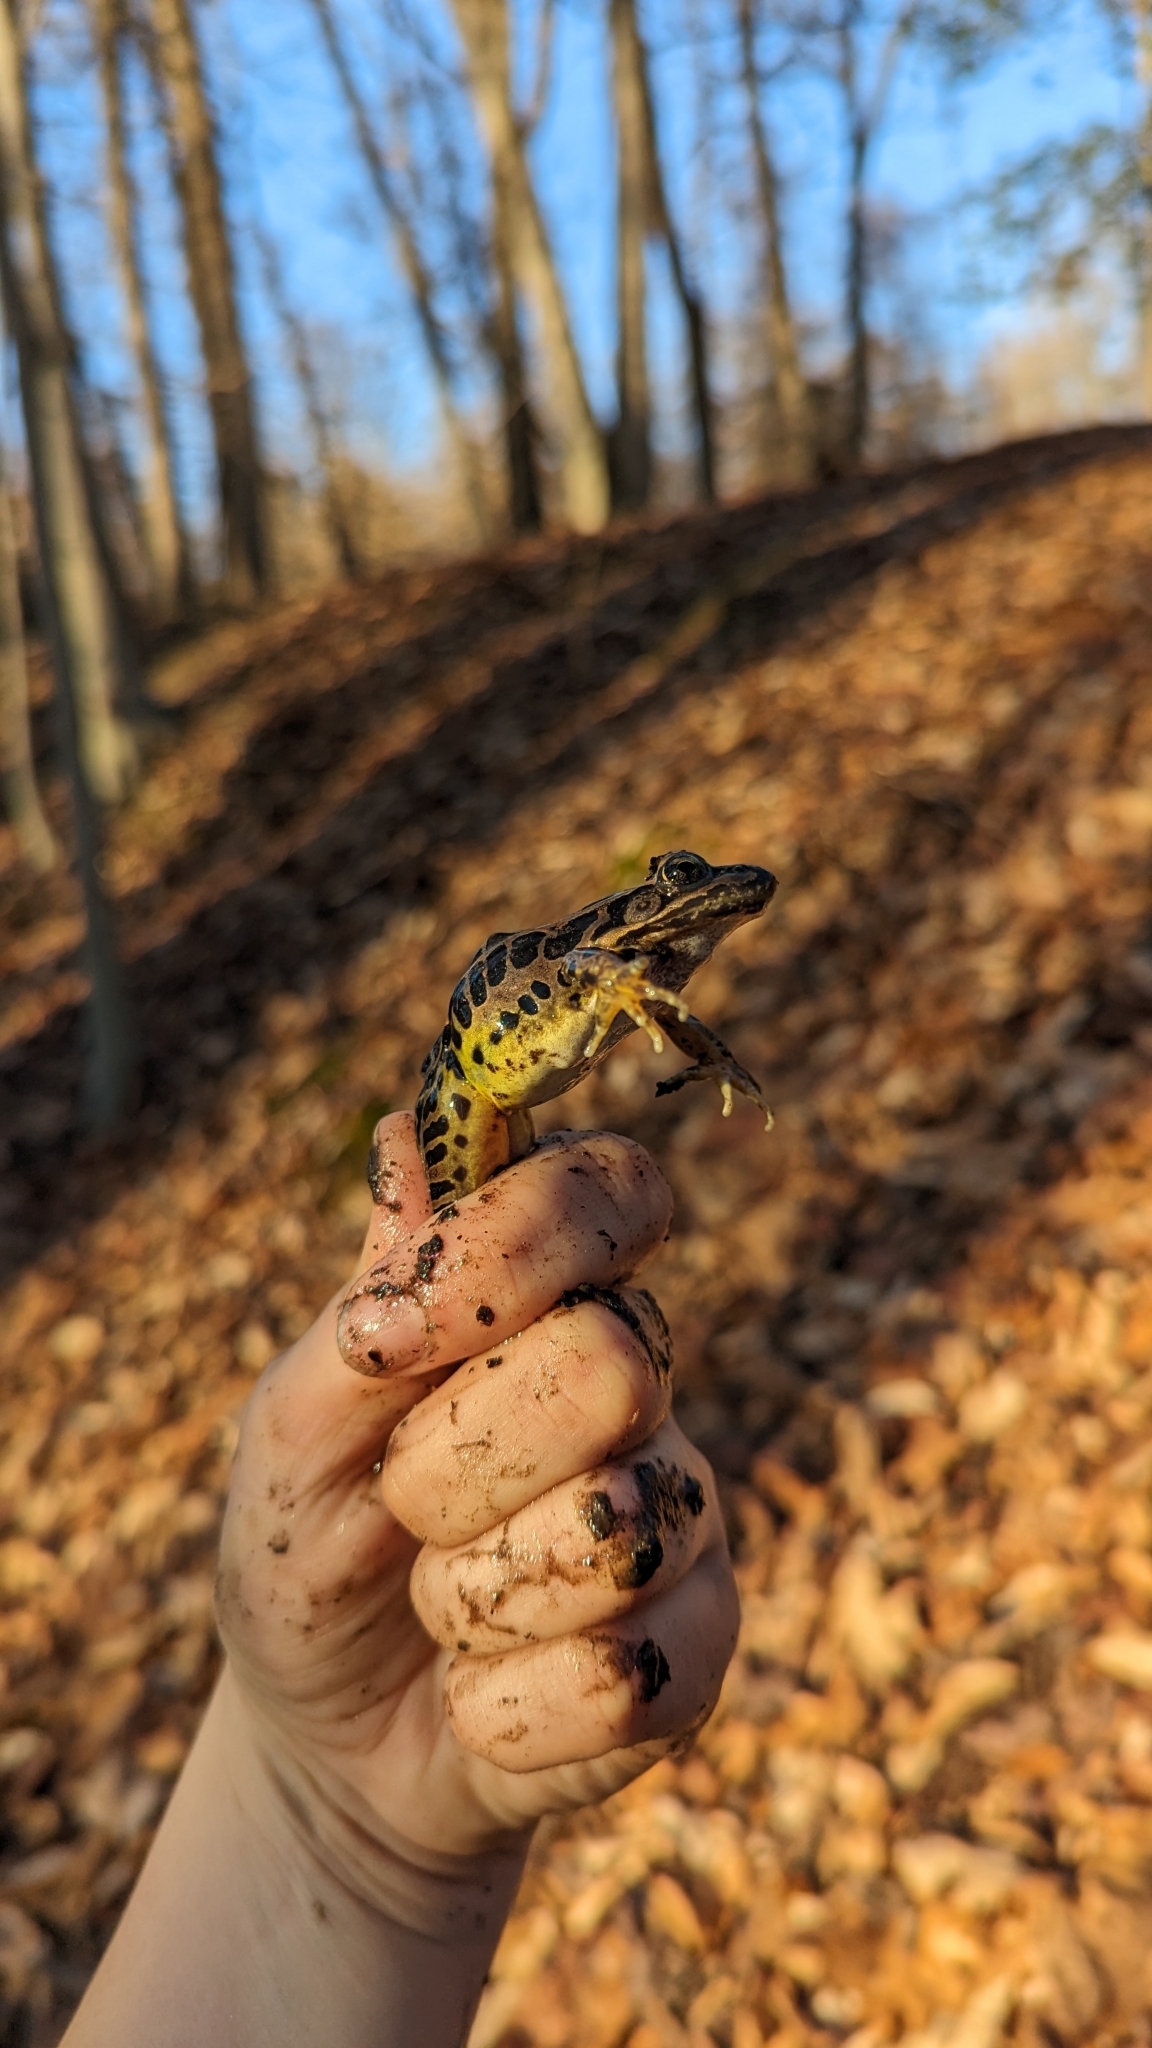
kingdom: Animalia
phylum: Chordata
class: Amphibia
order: Anura
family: Ranidae
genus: Lithobates
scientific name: Lithobates palustris
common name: Pickerel frog
